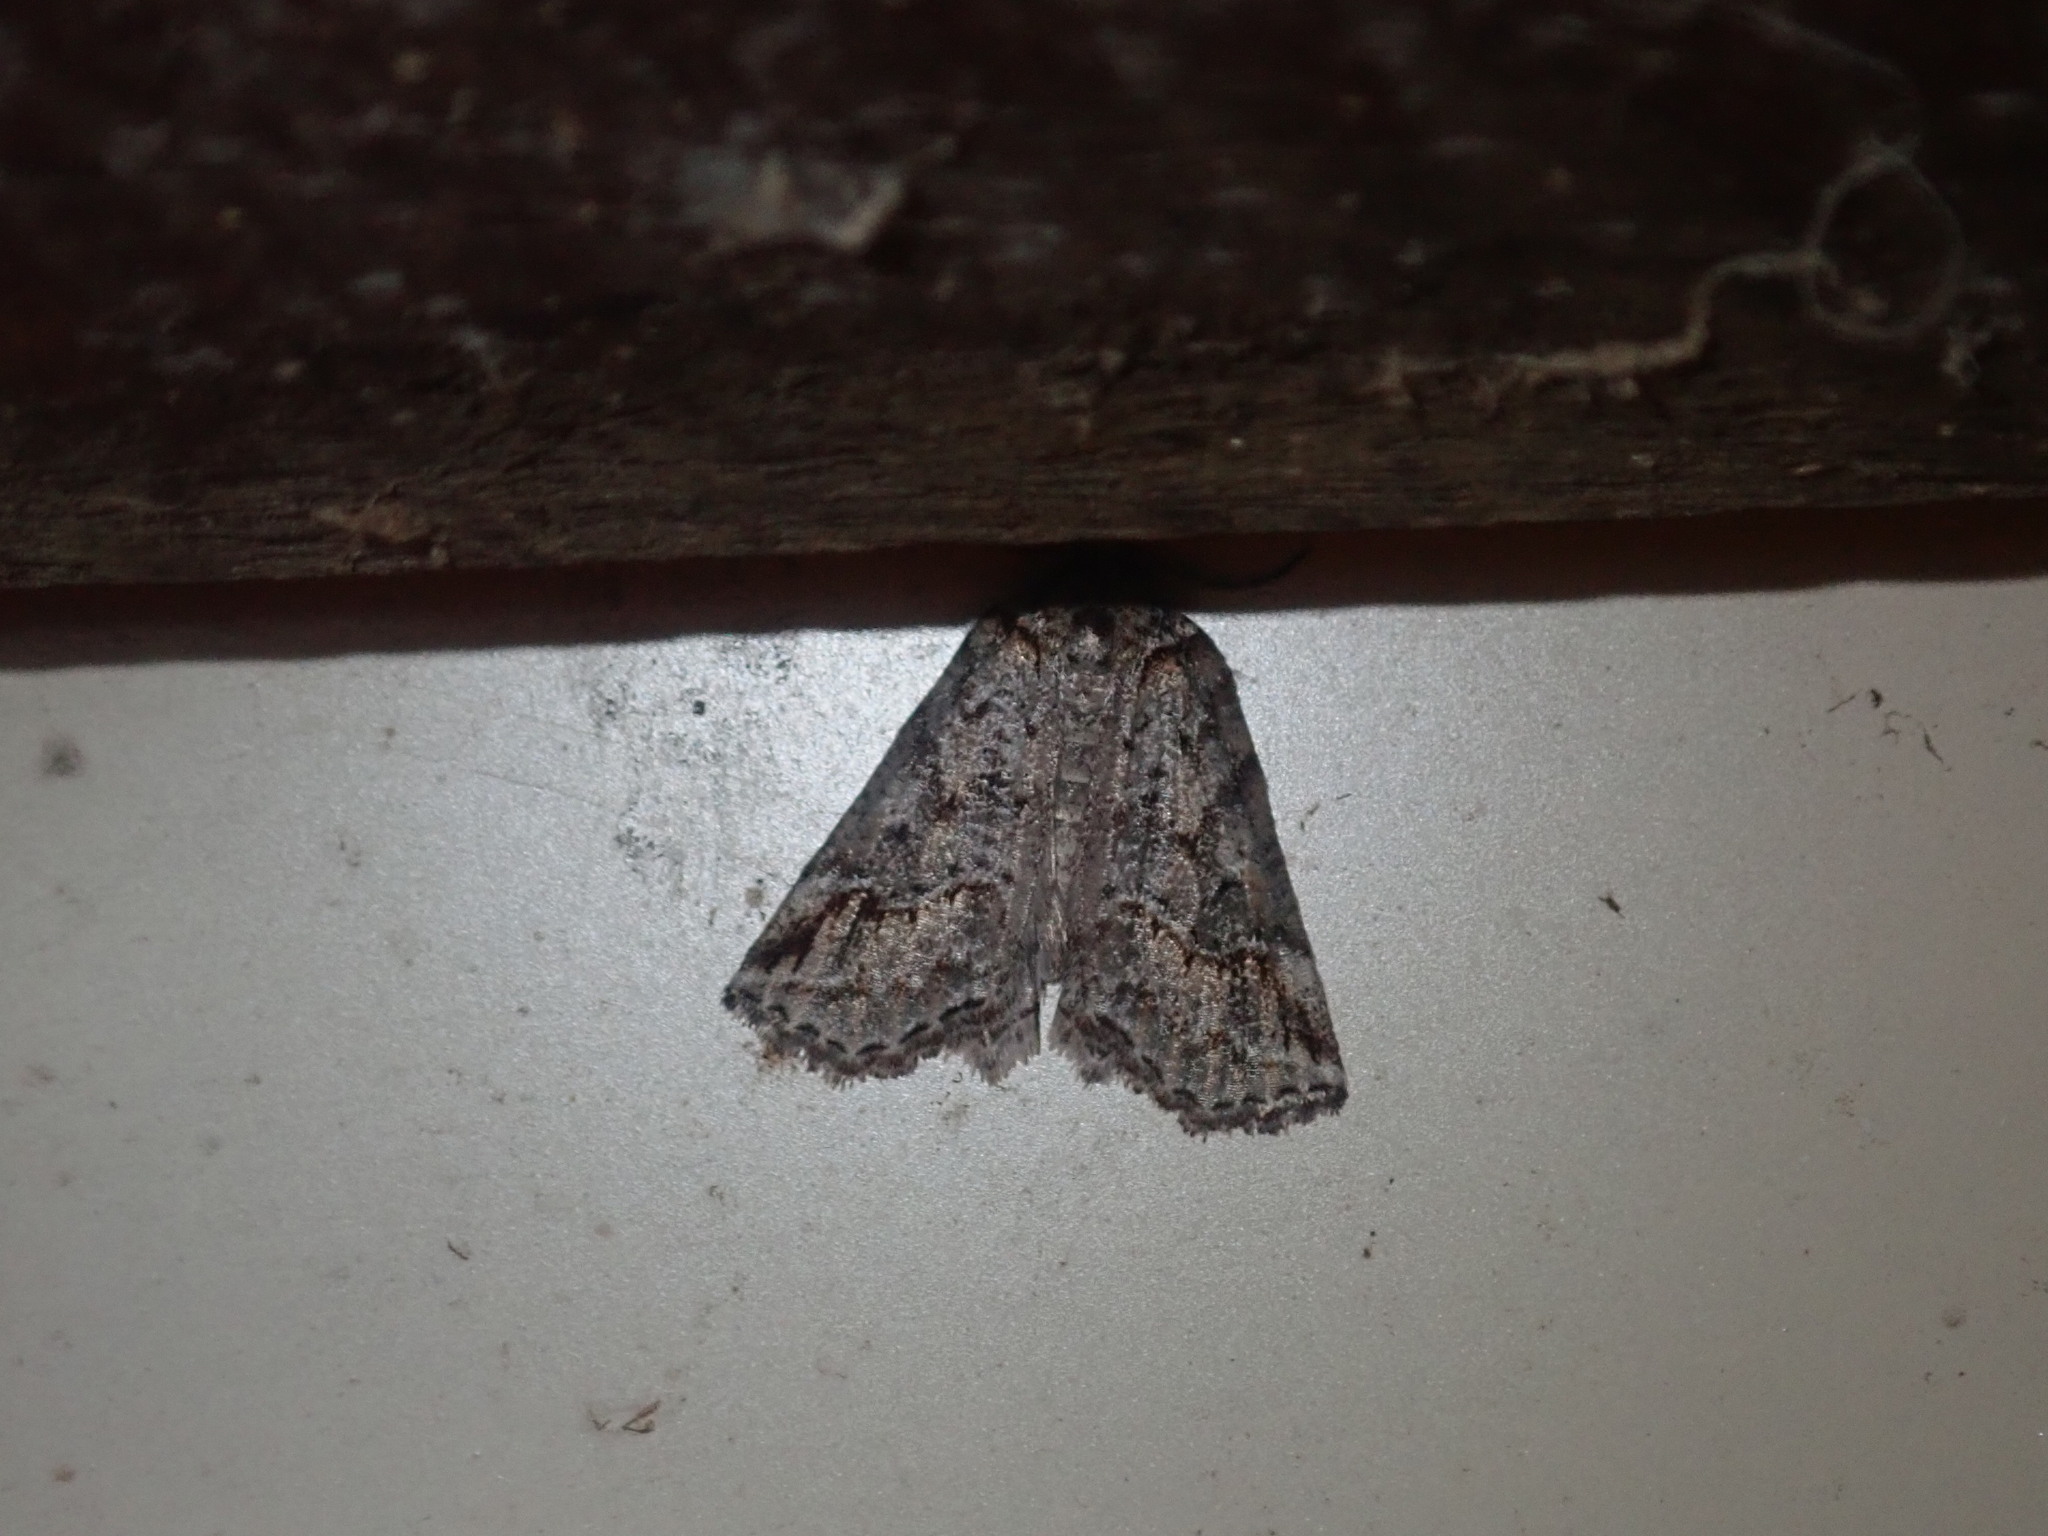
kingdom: Animalia
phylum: Arthropoda
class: Insecta
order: Lepidoptera
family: Geometridae
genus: Plesiolaea
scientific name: Plesiolaea promacha
